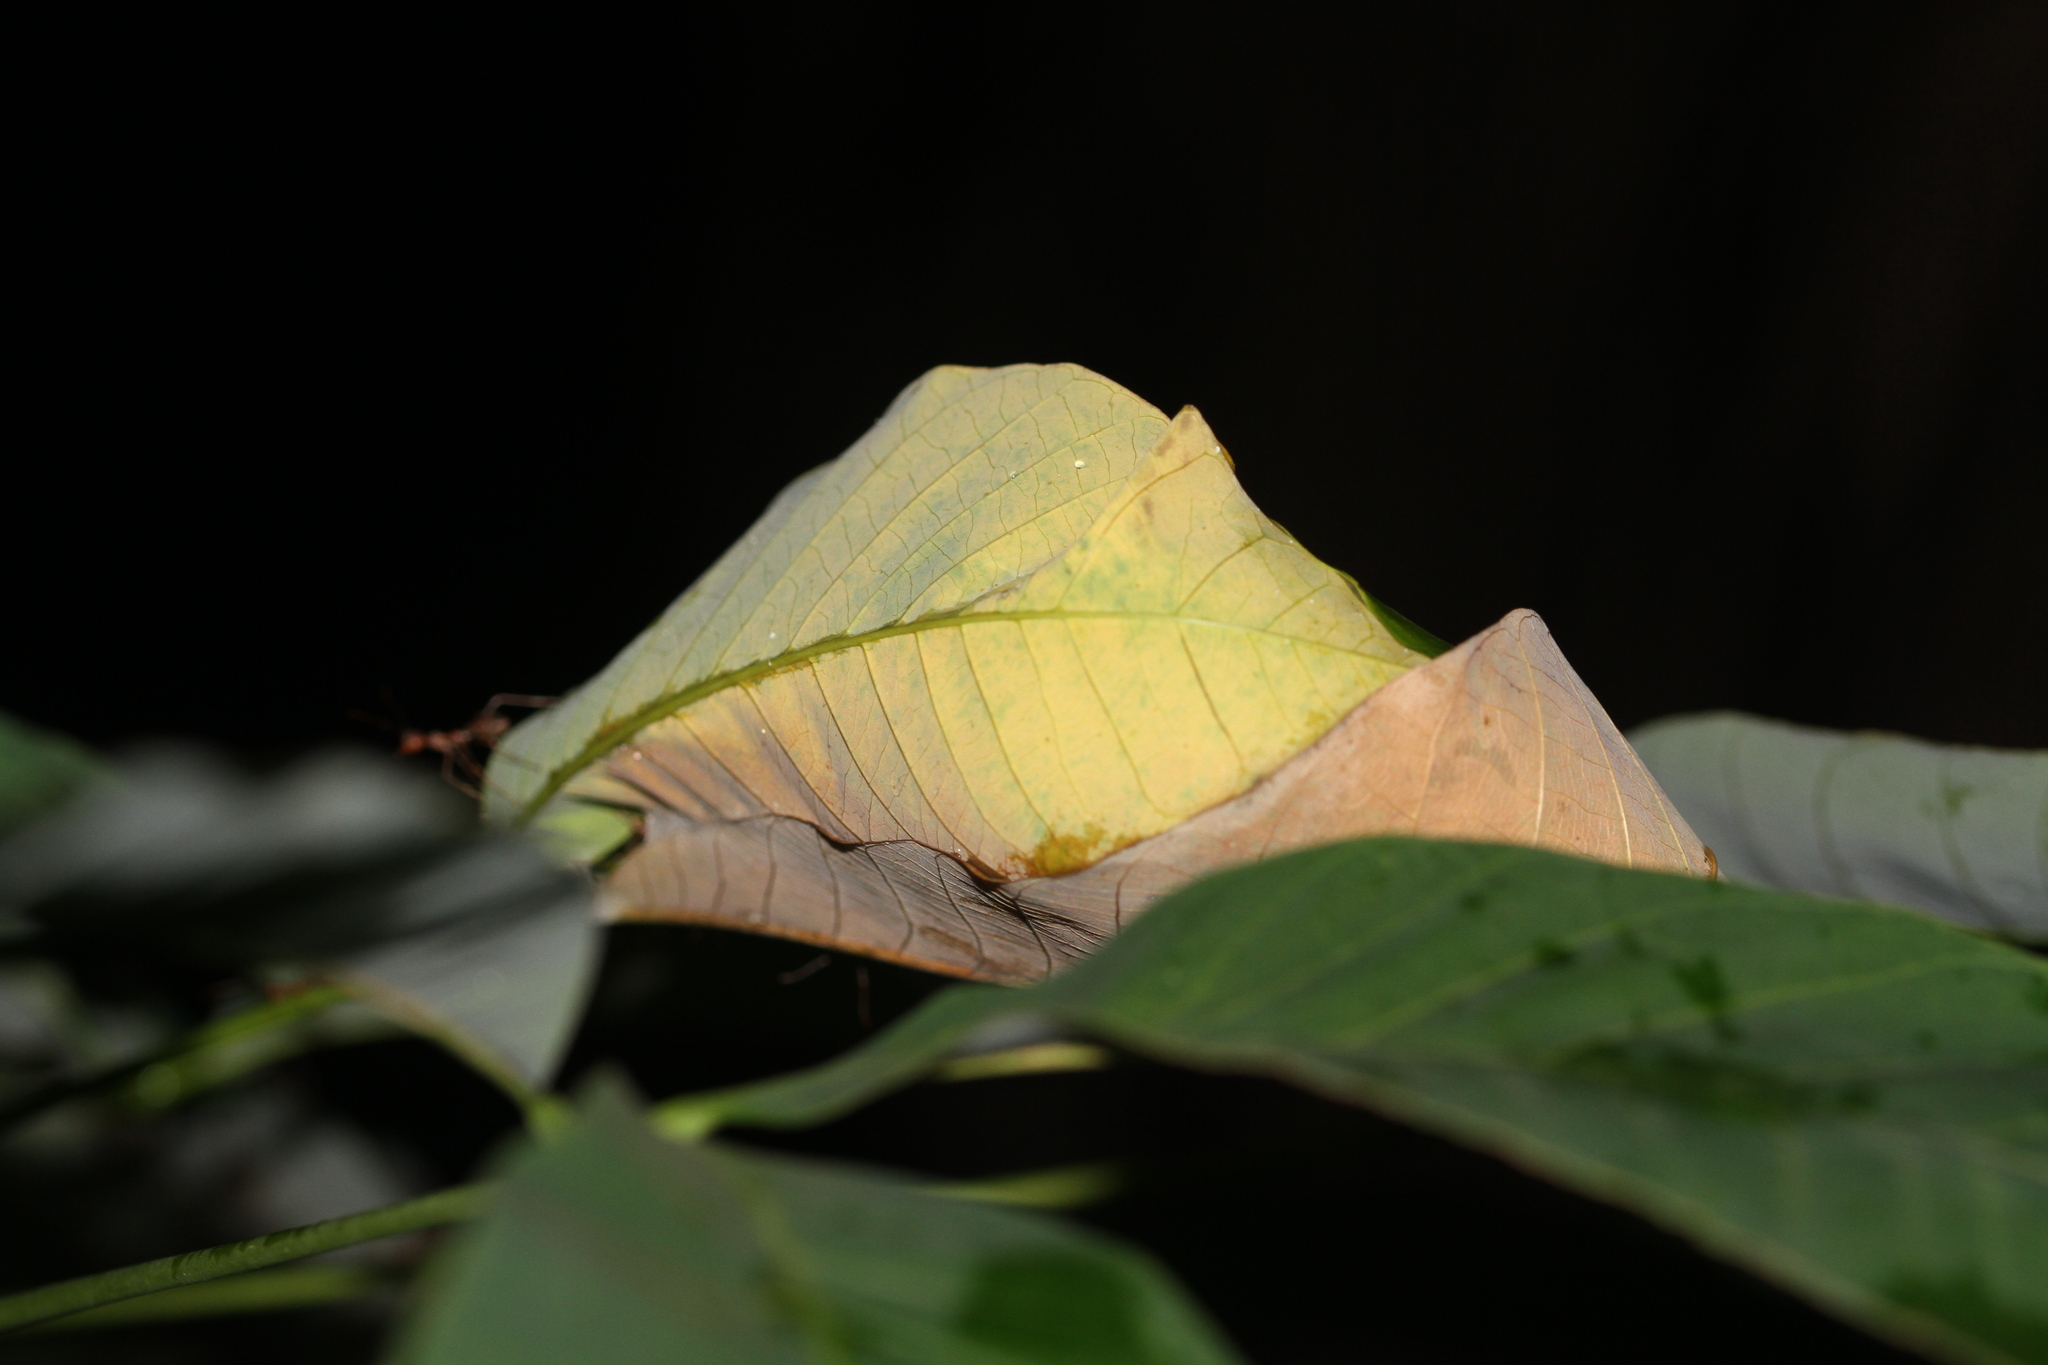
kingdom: Animalia
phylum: Arthropoda
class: Insecta
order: Hymenoptera
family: Formicidae
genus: Oecophylla
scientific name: Oecophylla smaragdina
